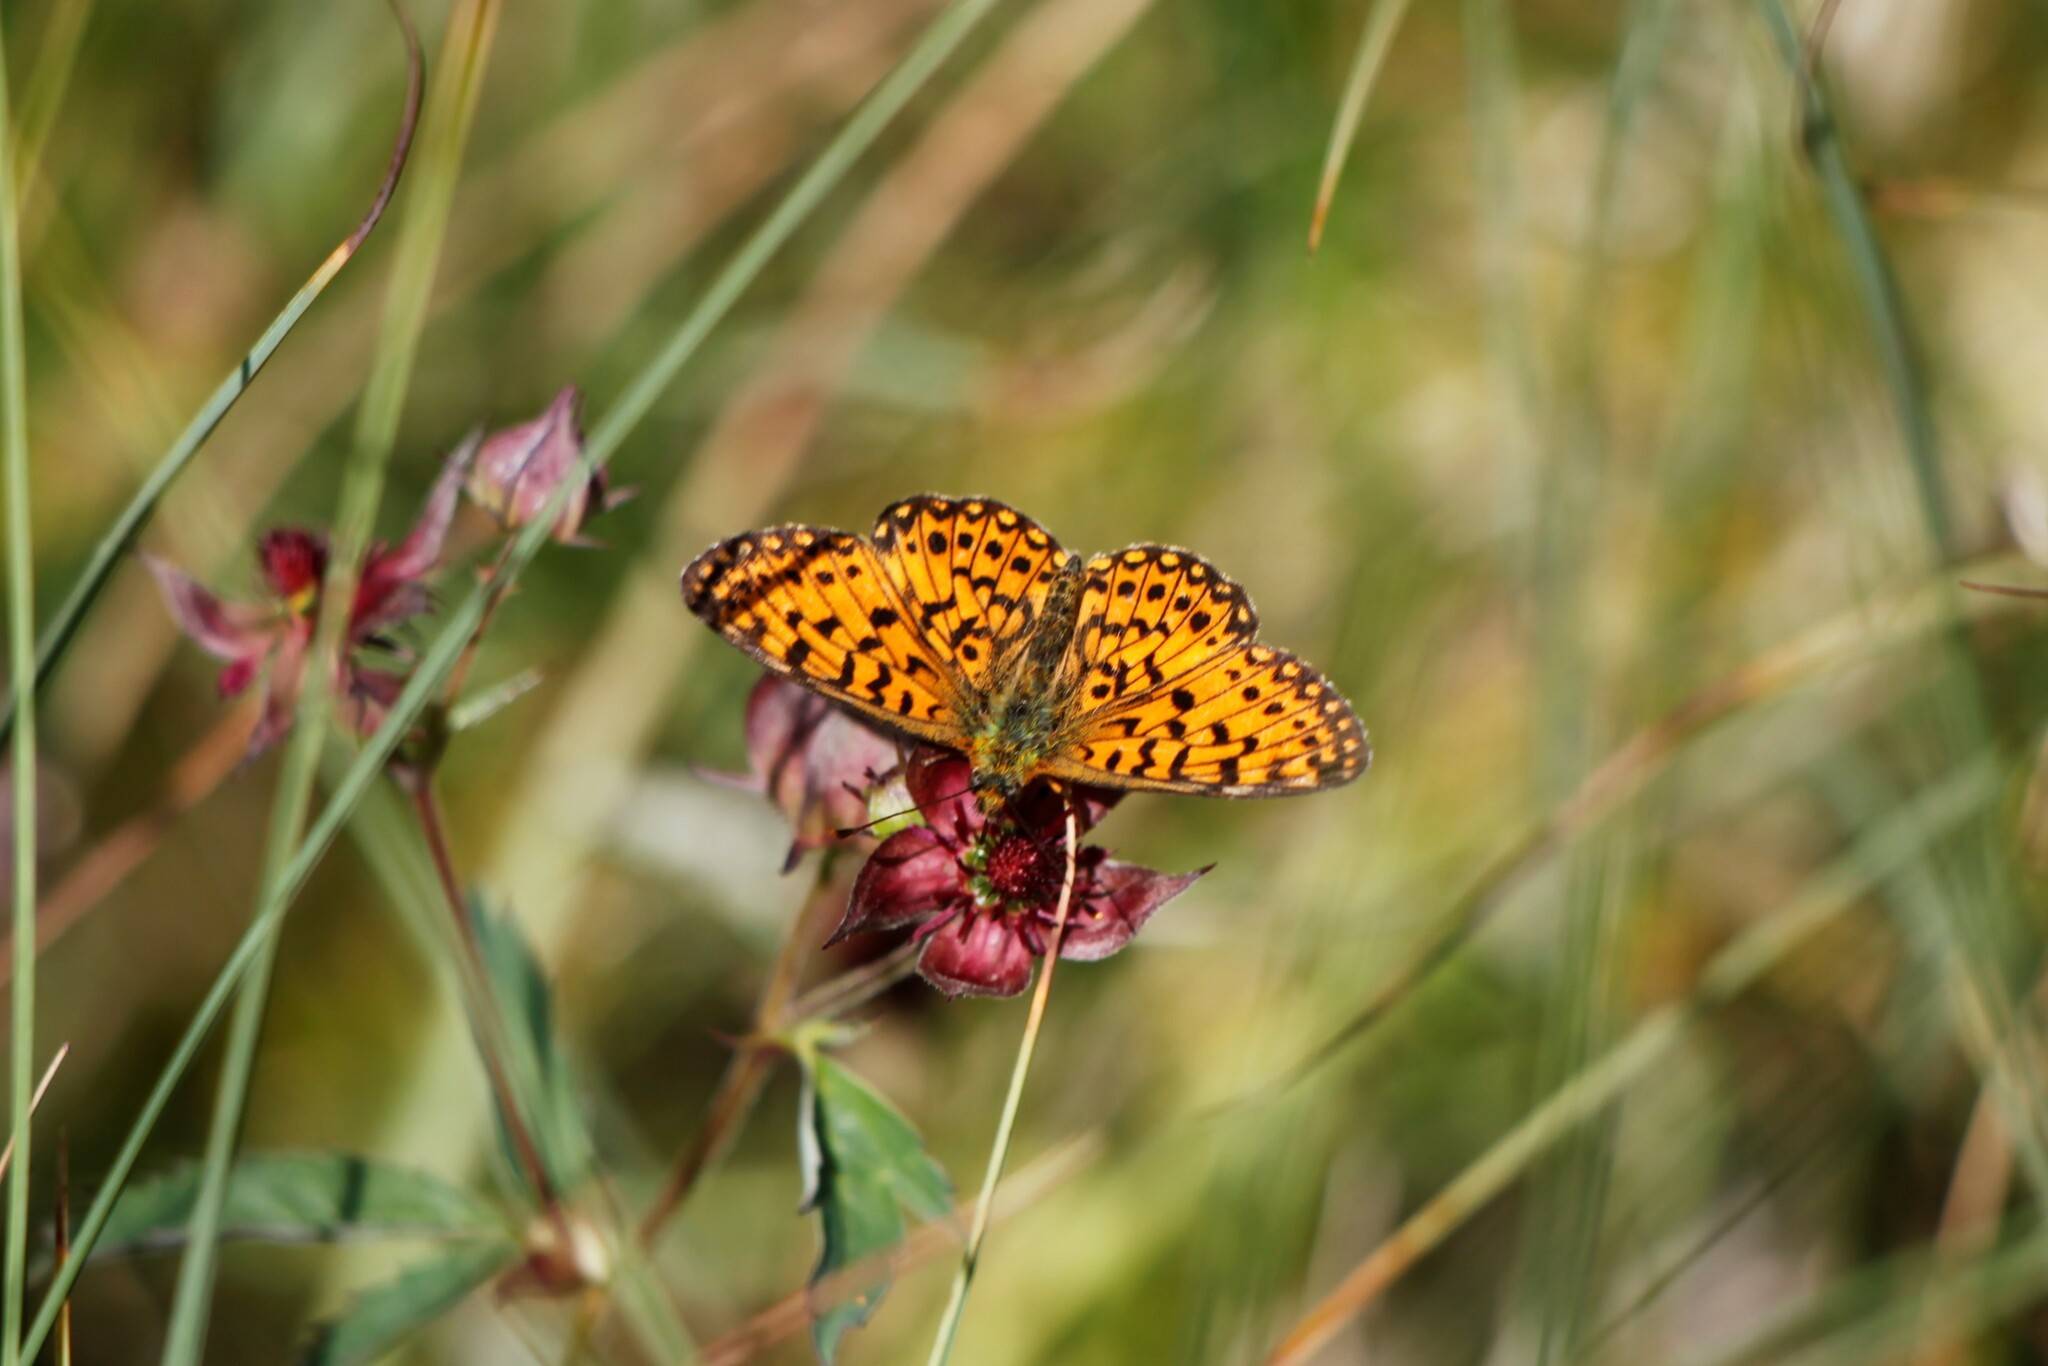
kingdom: Animalia
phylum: Arthropoda
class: Insecta
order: Lepidoptera
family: Nymphalidae
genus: Boloria
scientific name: Boloria selene
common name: Small pearl-bordered fritillary
